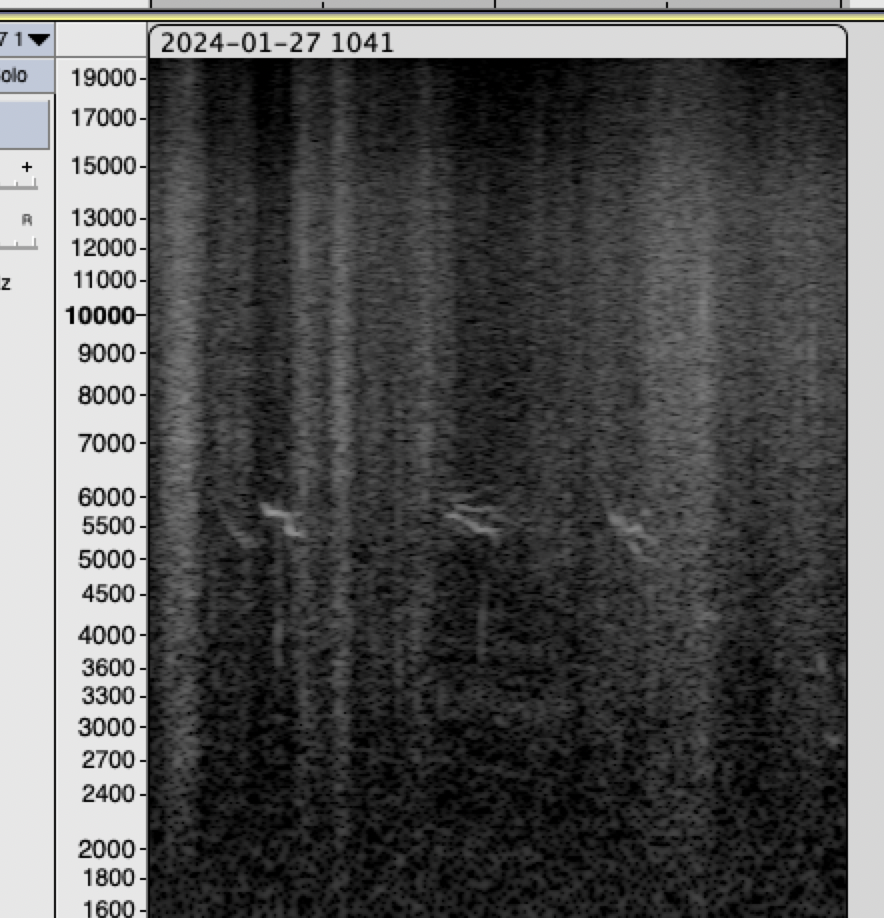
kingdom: Animalia
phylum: Chordata
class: Aves
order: Coraciiformes
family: Alcedinidae
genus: Alcedo
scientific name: Alcedo atthis
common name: Common kingfisher
